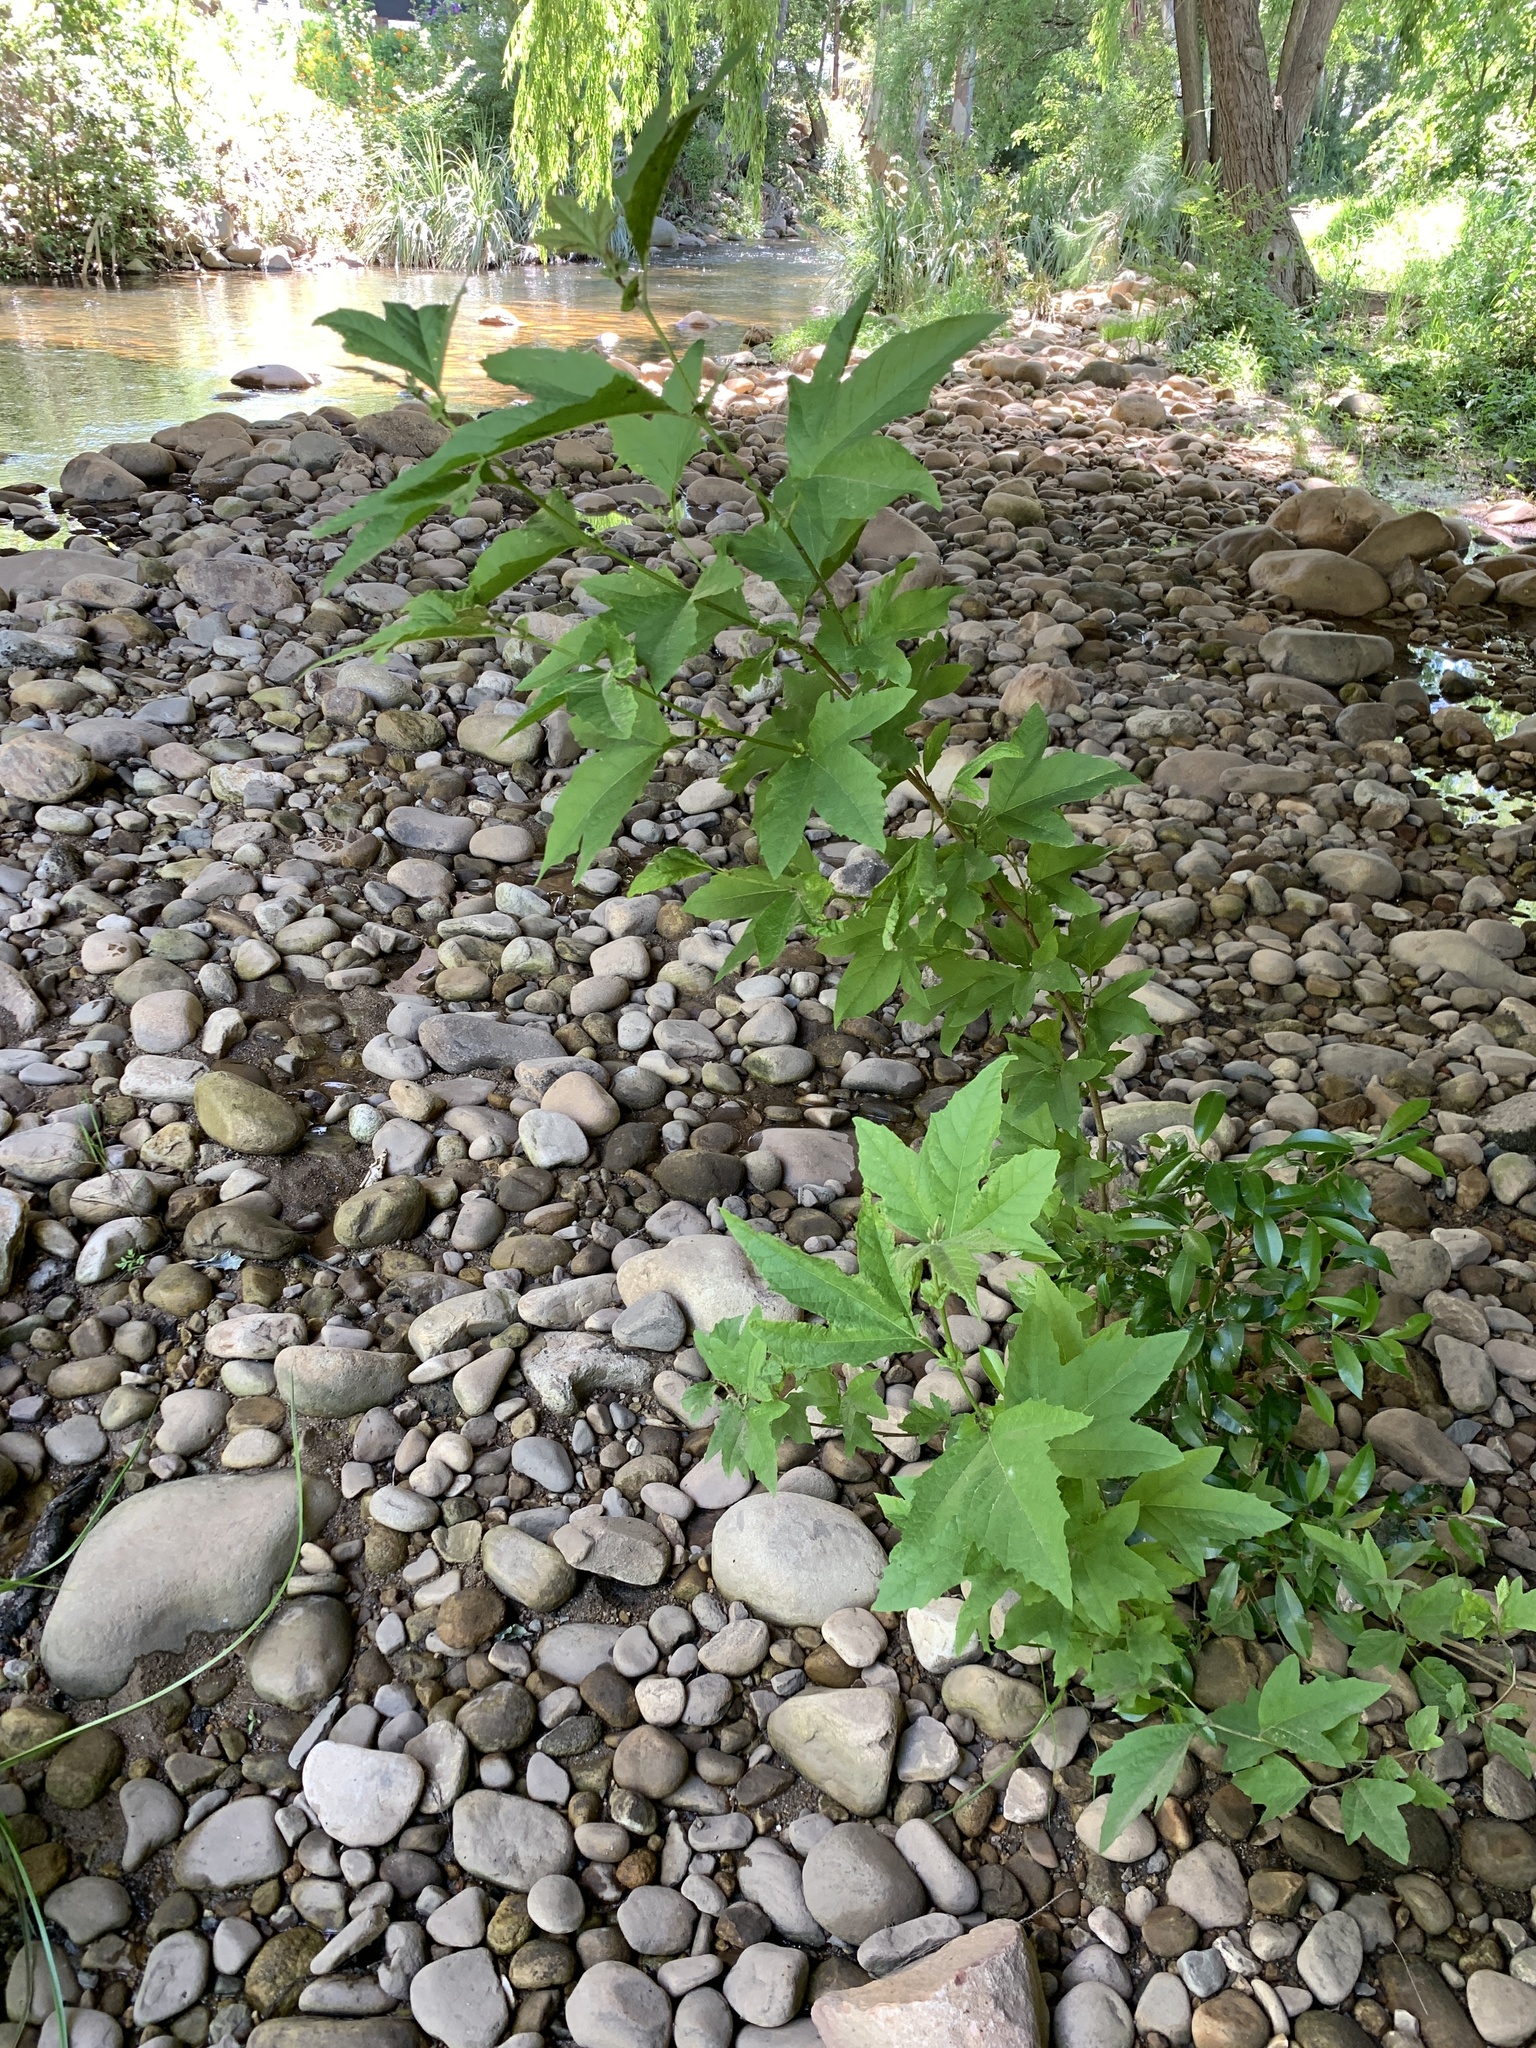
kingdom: Plantae
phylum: Tracheophyta
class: Magnoliopsida
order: Proteales
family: Platanaceae
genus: Platanus
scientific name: Platanus hispanica
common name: London plane
